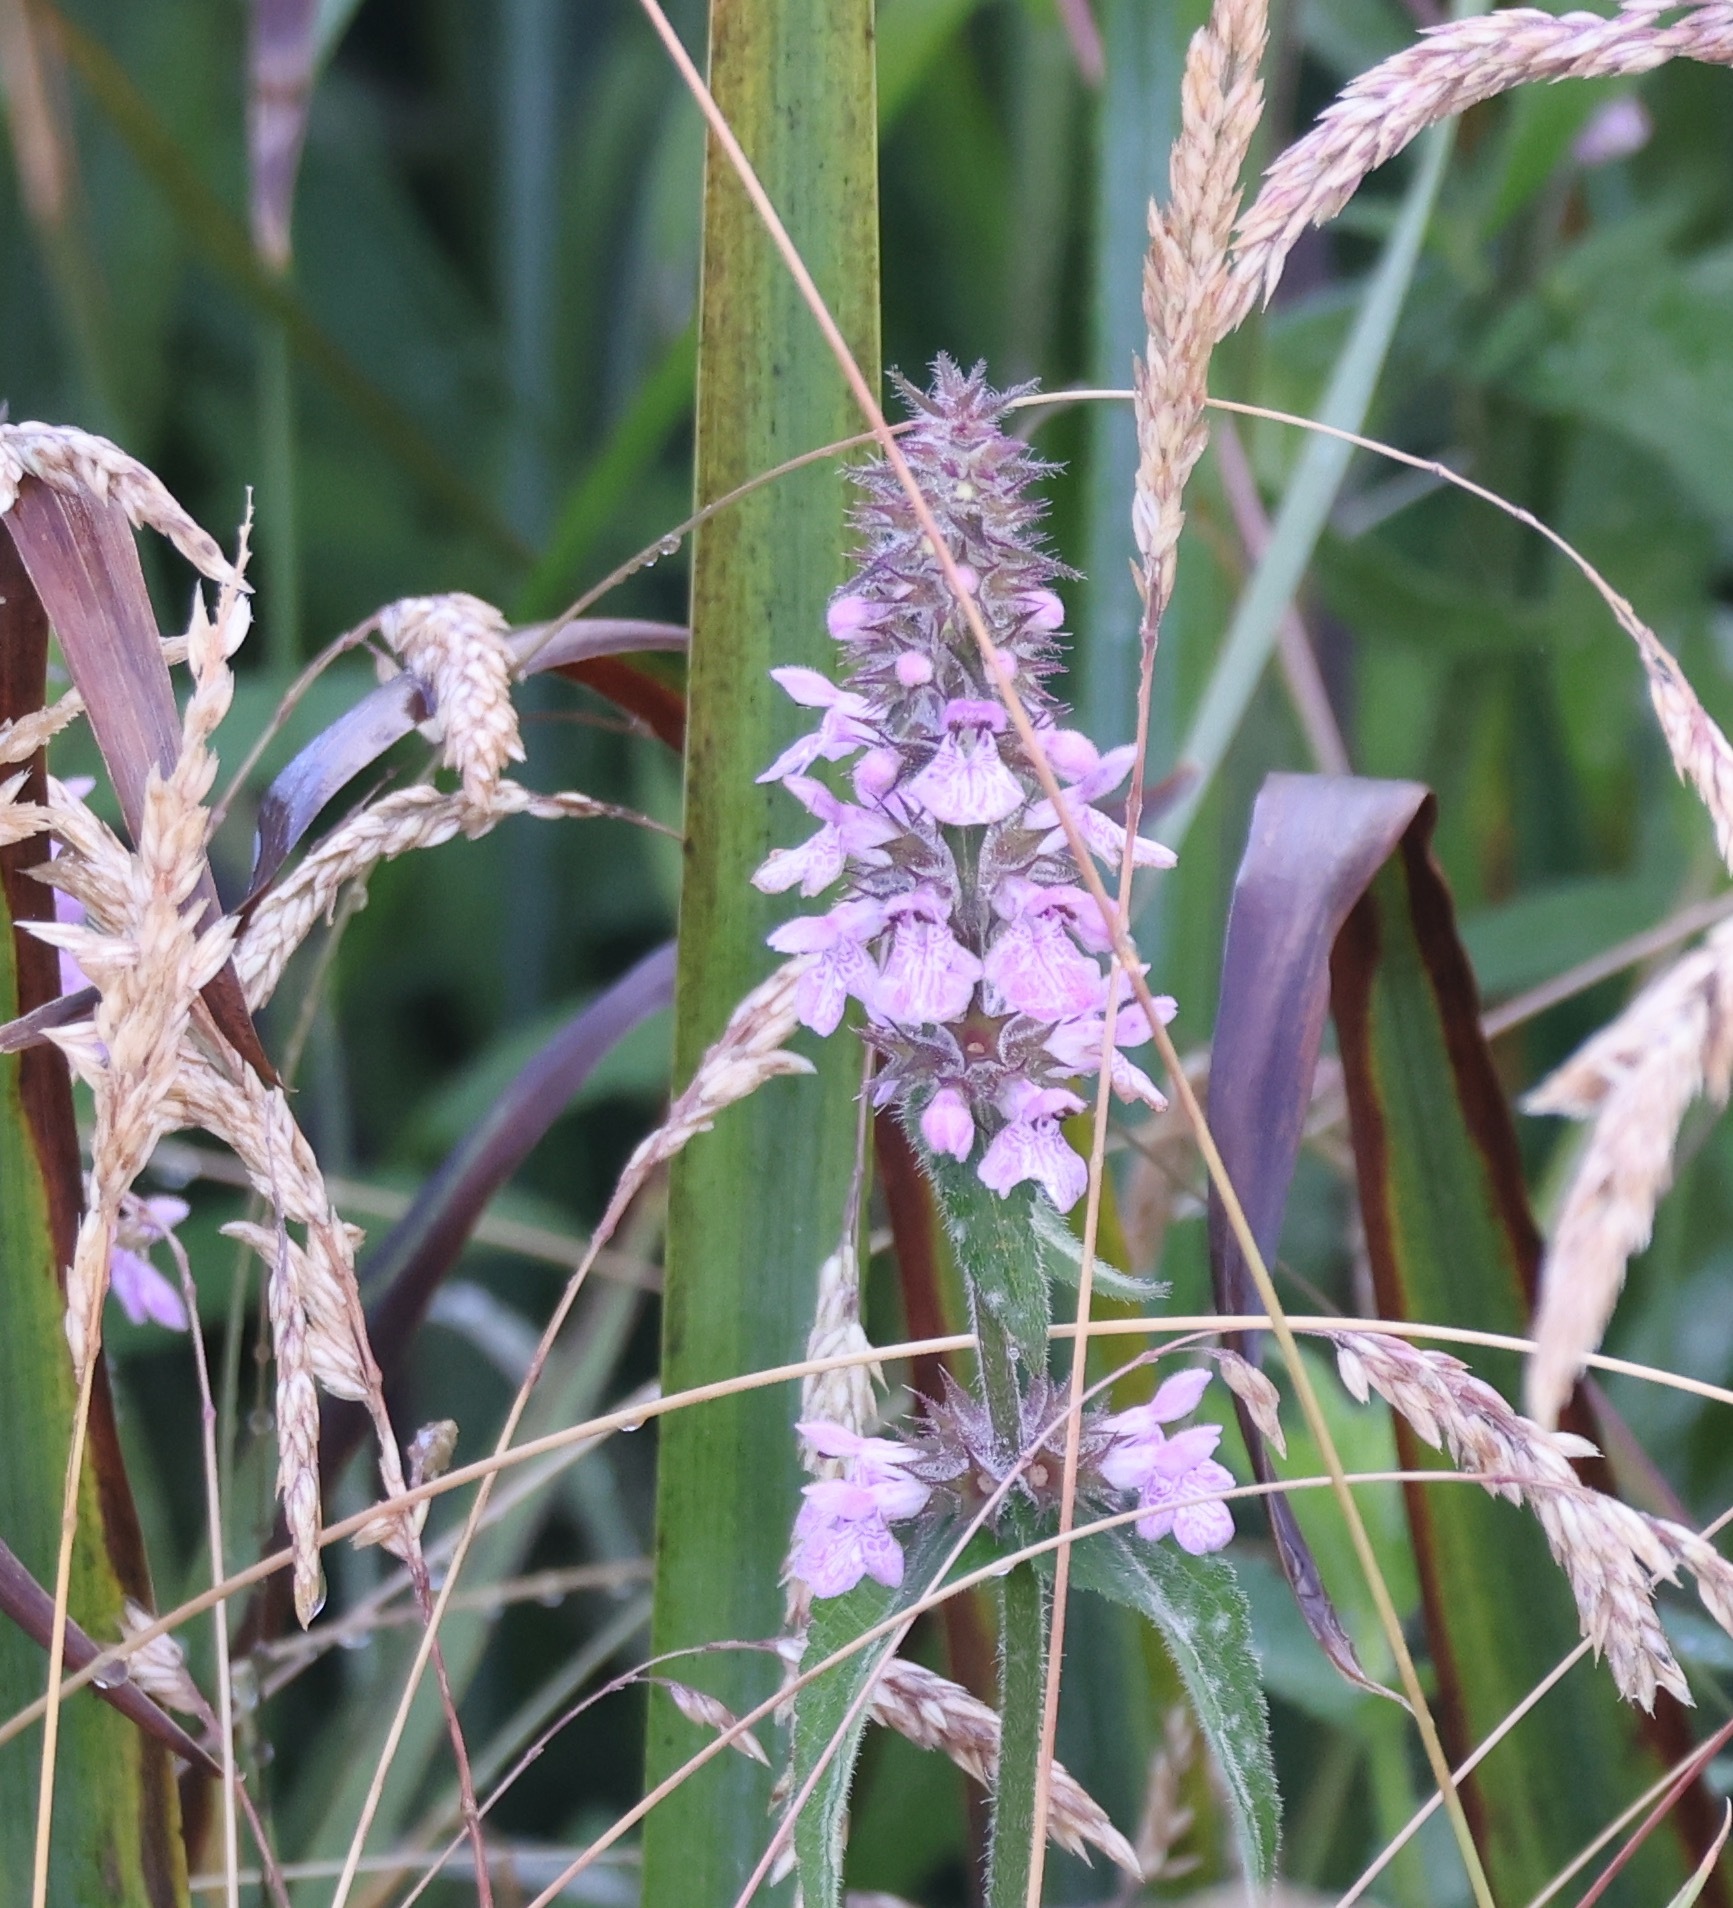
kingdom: Plantae
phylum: Tracheophyta
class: Magnoliopsida
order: Lamiales
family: Lamiaceae
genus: Stachys
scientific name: Stachys palustris
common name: Marsh woundwort
